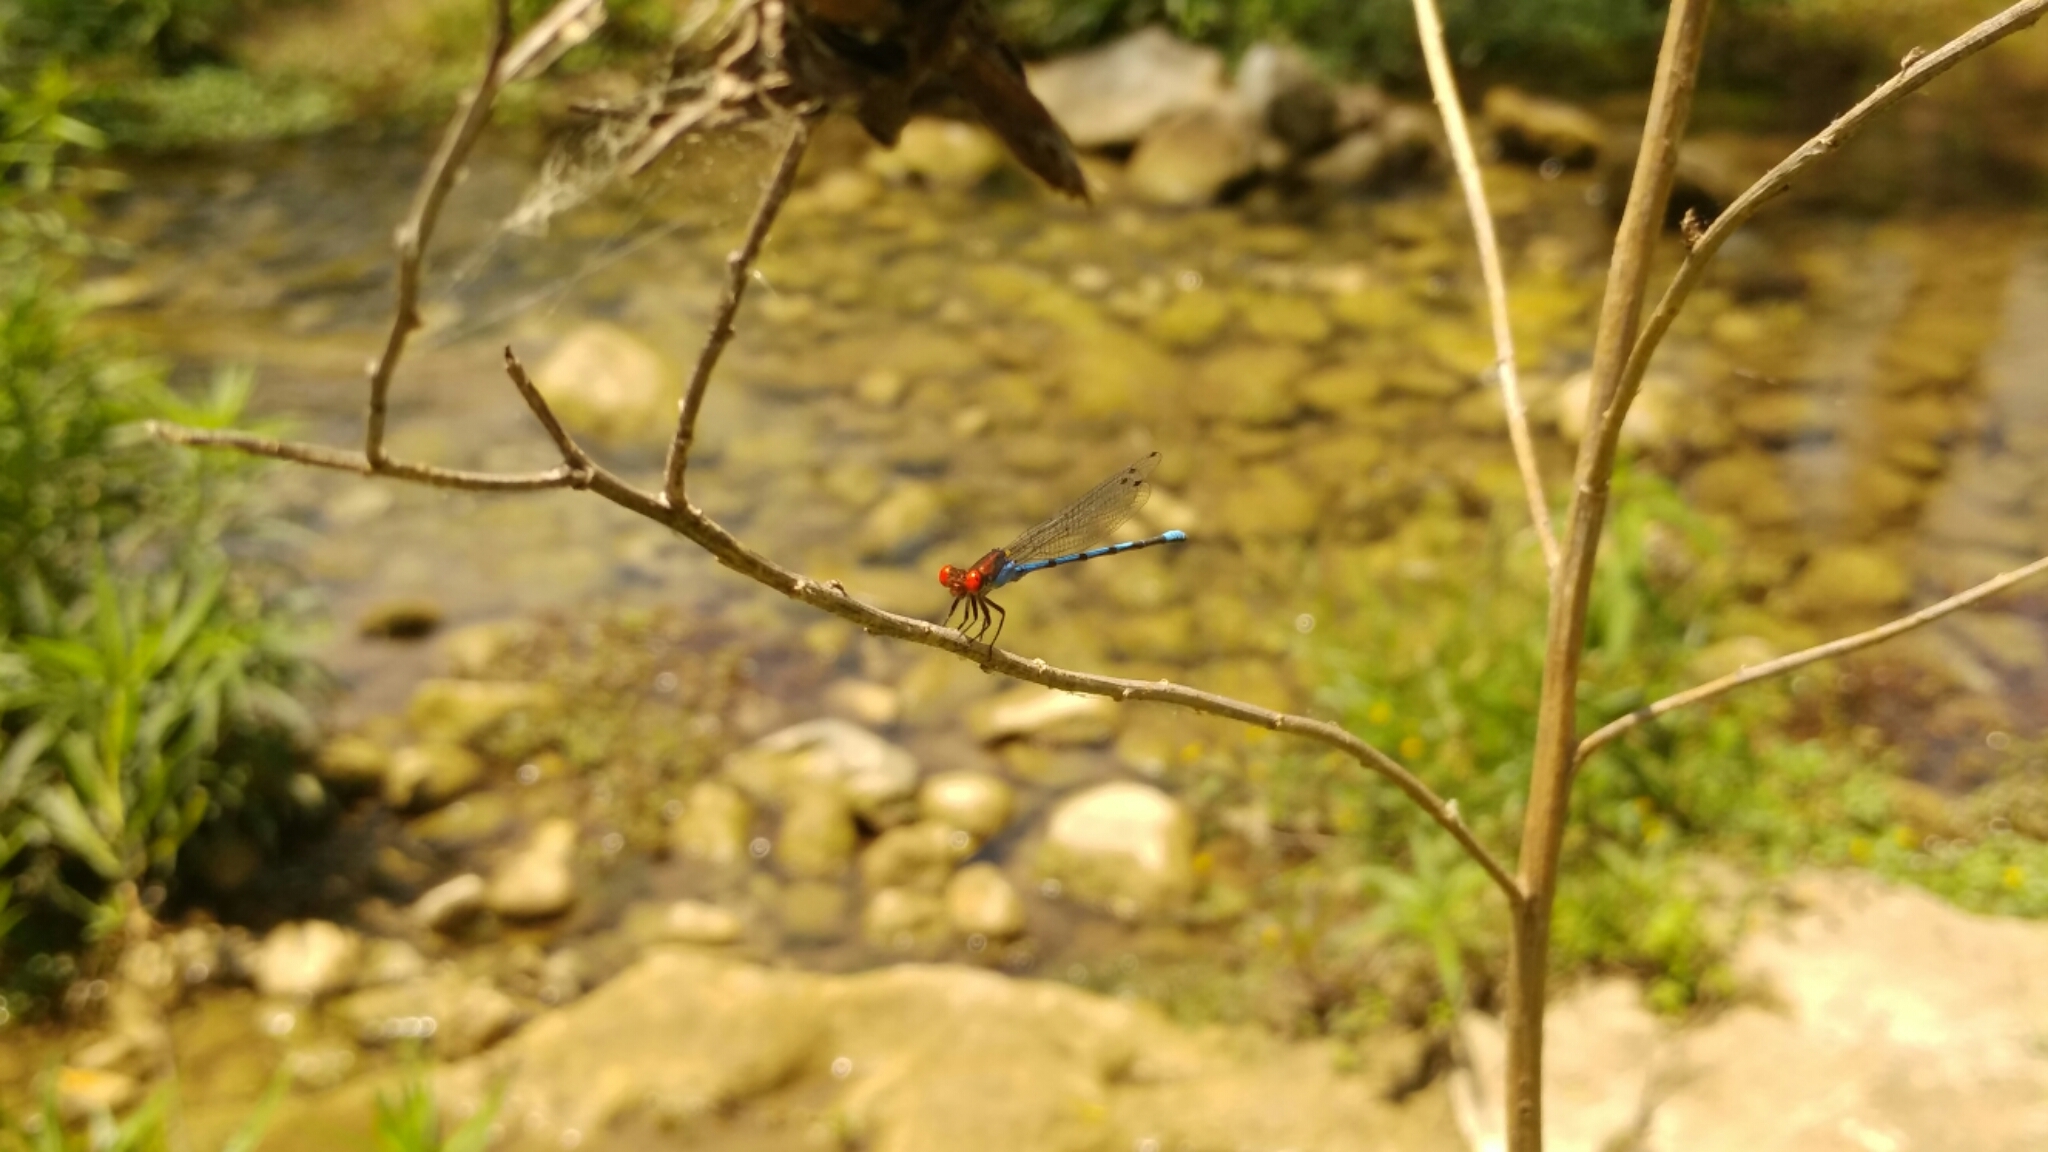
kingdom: Animalia
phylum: Arthropoda
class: Insecta
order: Odonata
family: Coenagrionidae
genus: Argia
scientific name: Argia oenea
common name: Fiery-eyed dancer
